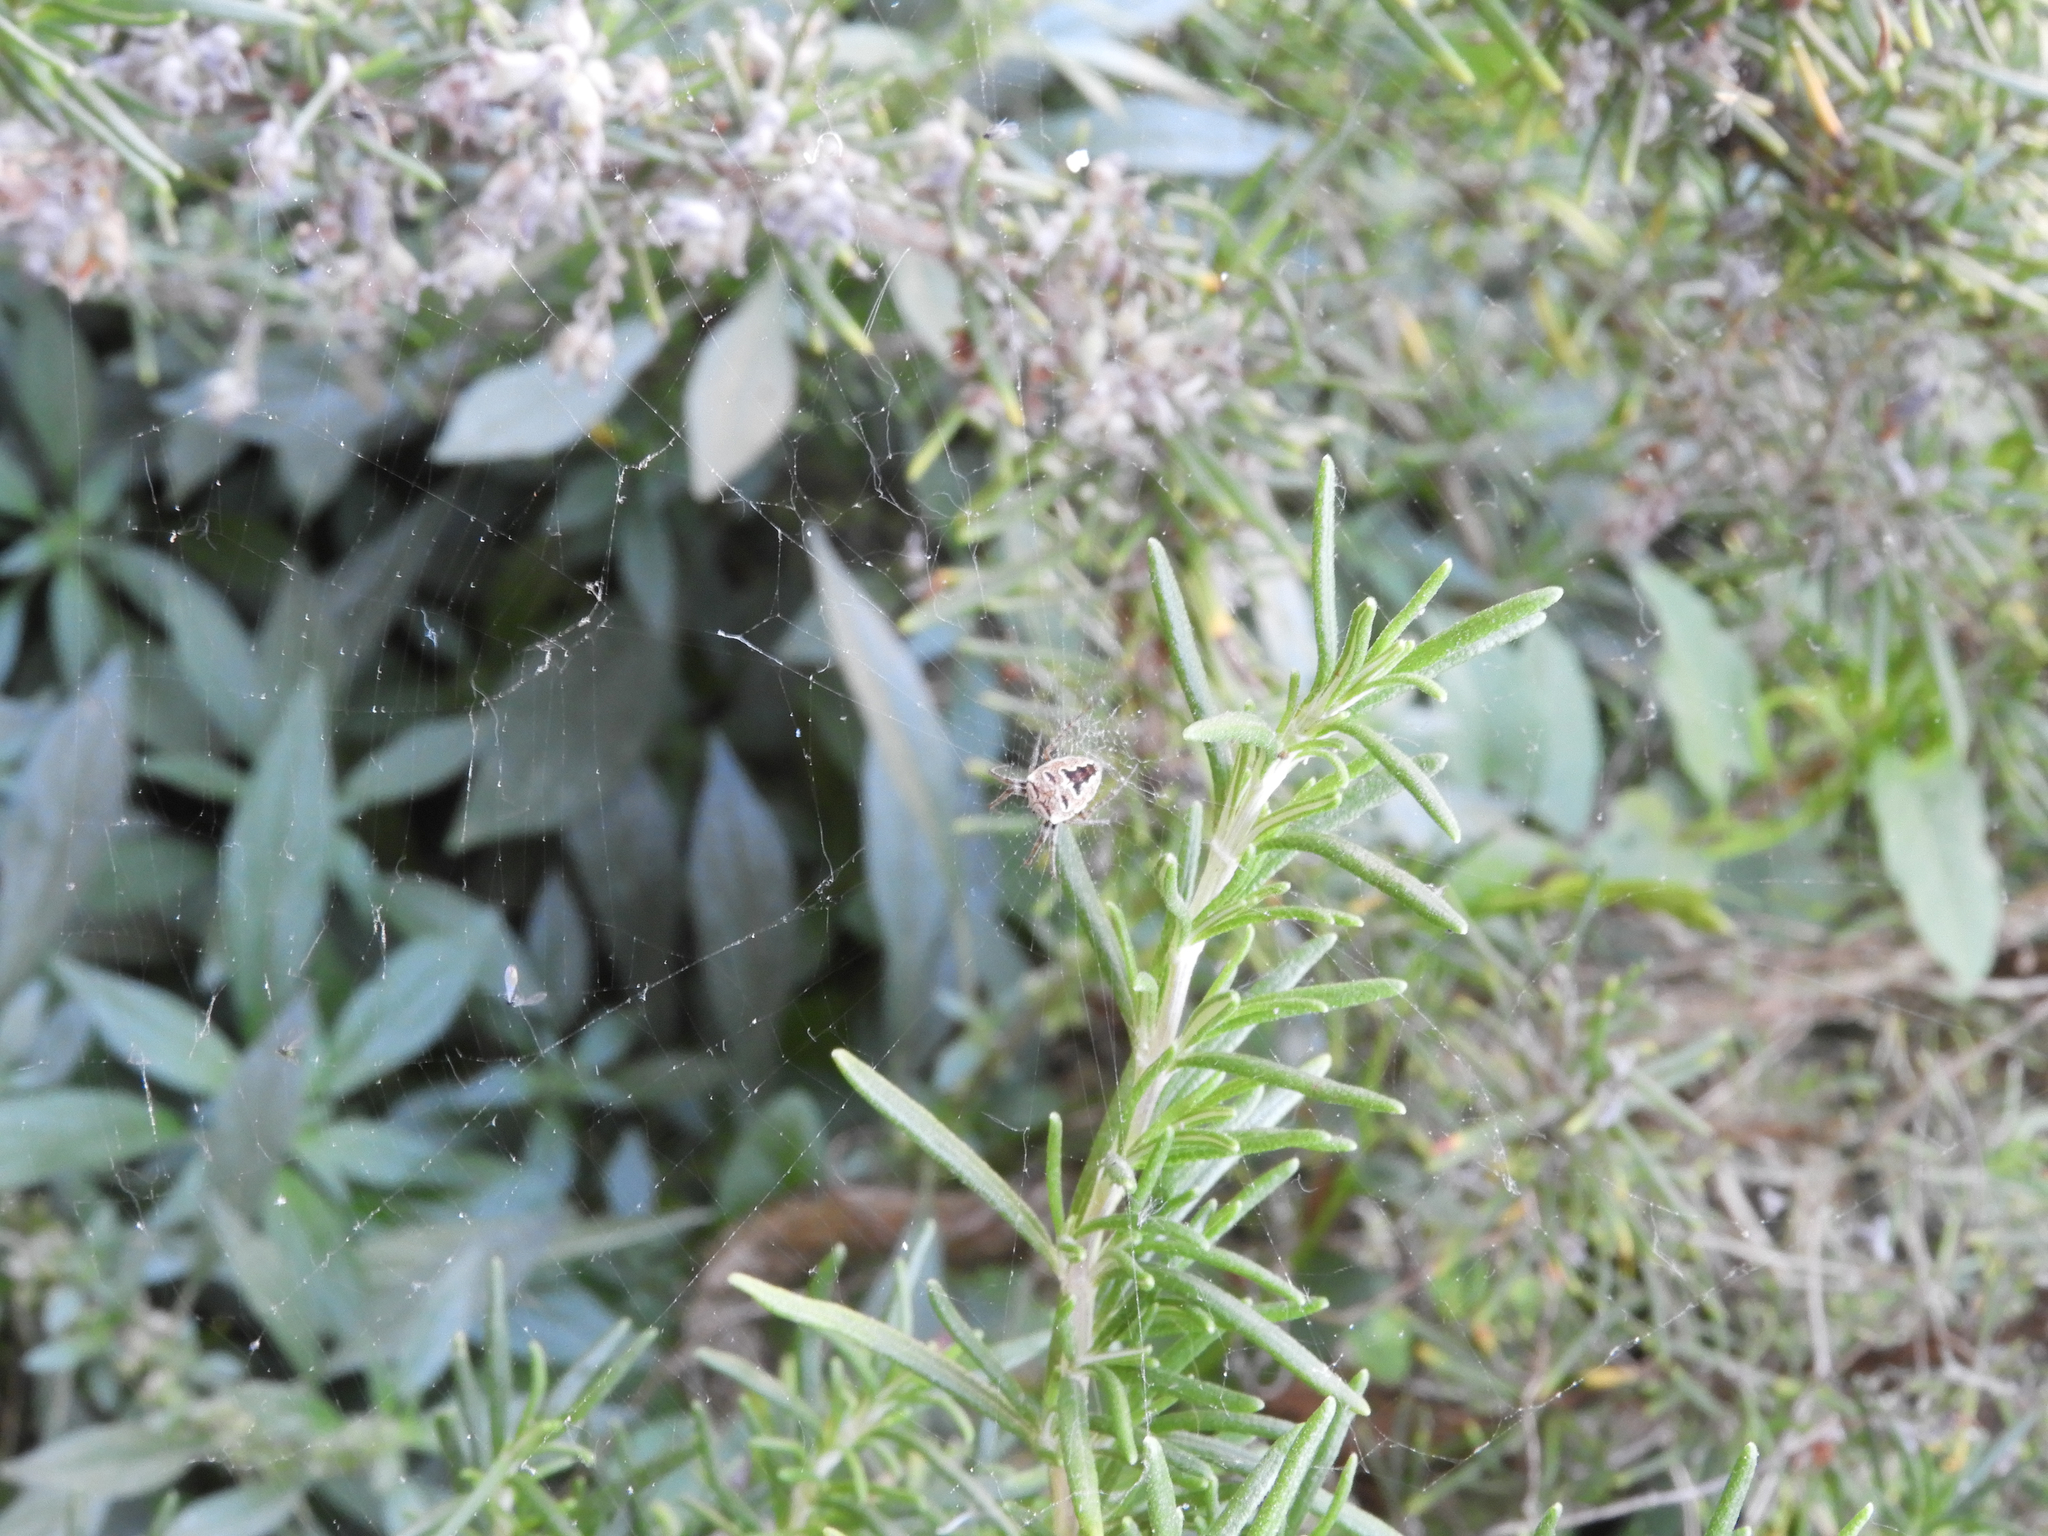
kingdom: Animalia
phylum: Arthropoda
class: Arachnida
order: Araneae
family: Araneidae
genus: Zilla
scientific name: Zilla diodia
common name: Zilla diodia
